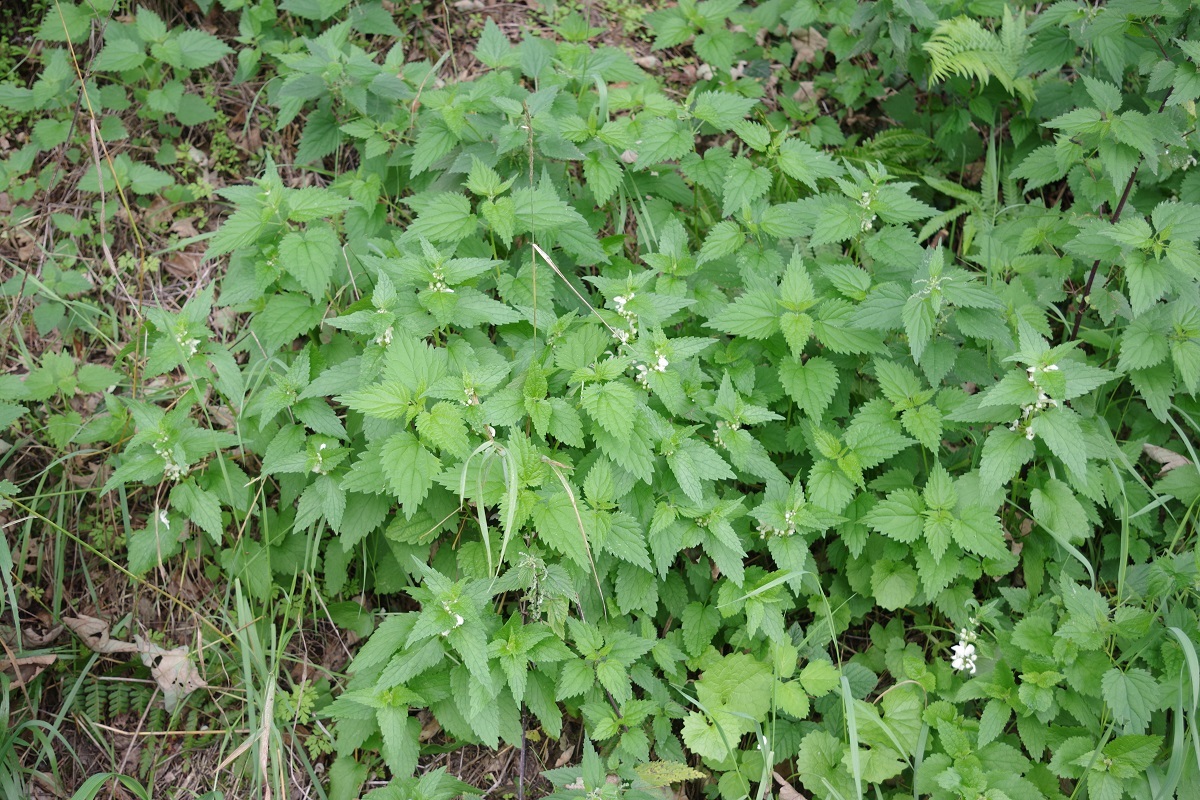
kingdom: Plantae
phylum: Tracheophyta
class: Magnoliopsida
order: Lamiales
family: Lamiaceae
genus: Lamium
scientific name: Lamium album
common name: White dead-nettle
